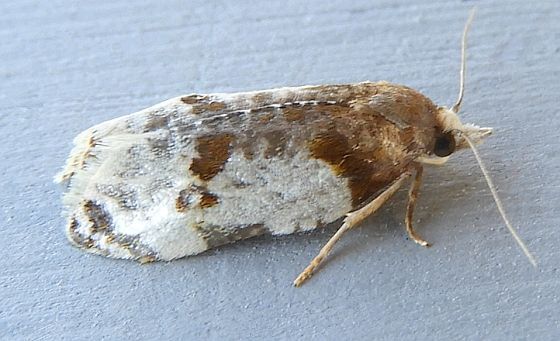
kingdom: Animalia
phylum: Arthropoda
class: Insecta
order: Lepidoptera
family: Tortricidae
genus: Henricus
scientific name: Henricus fuscodorsana
